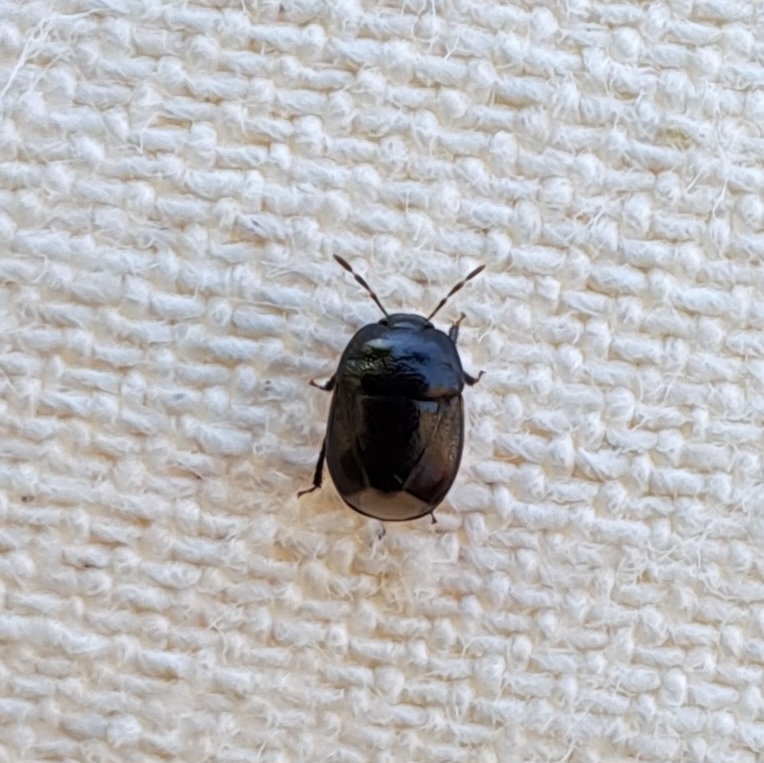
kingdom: Animalia
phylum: Arthropoda
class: Insecta
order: Hemiptera
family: Cydnidae
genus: Legnotus
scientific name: Legnotus picipes
